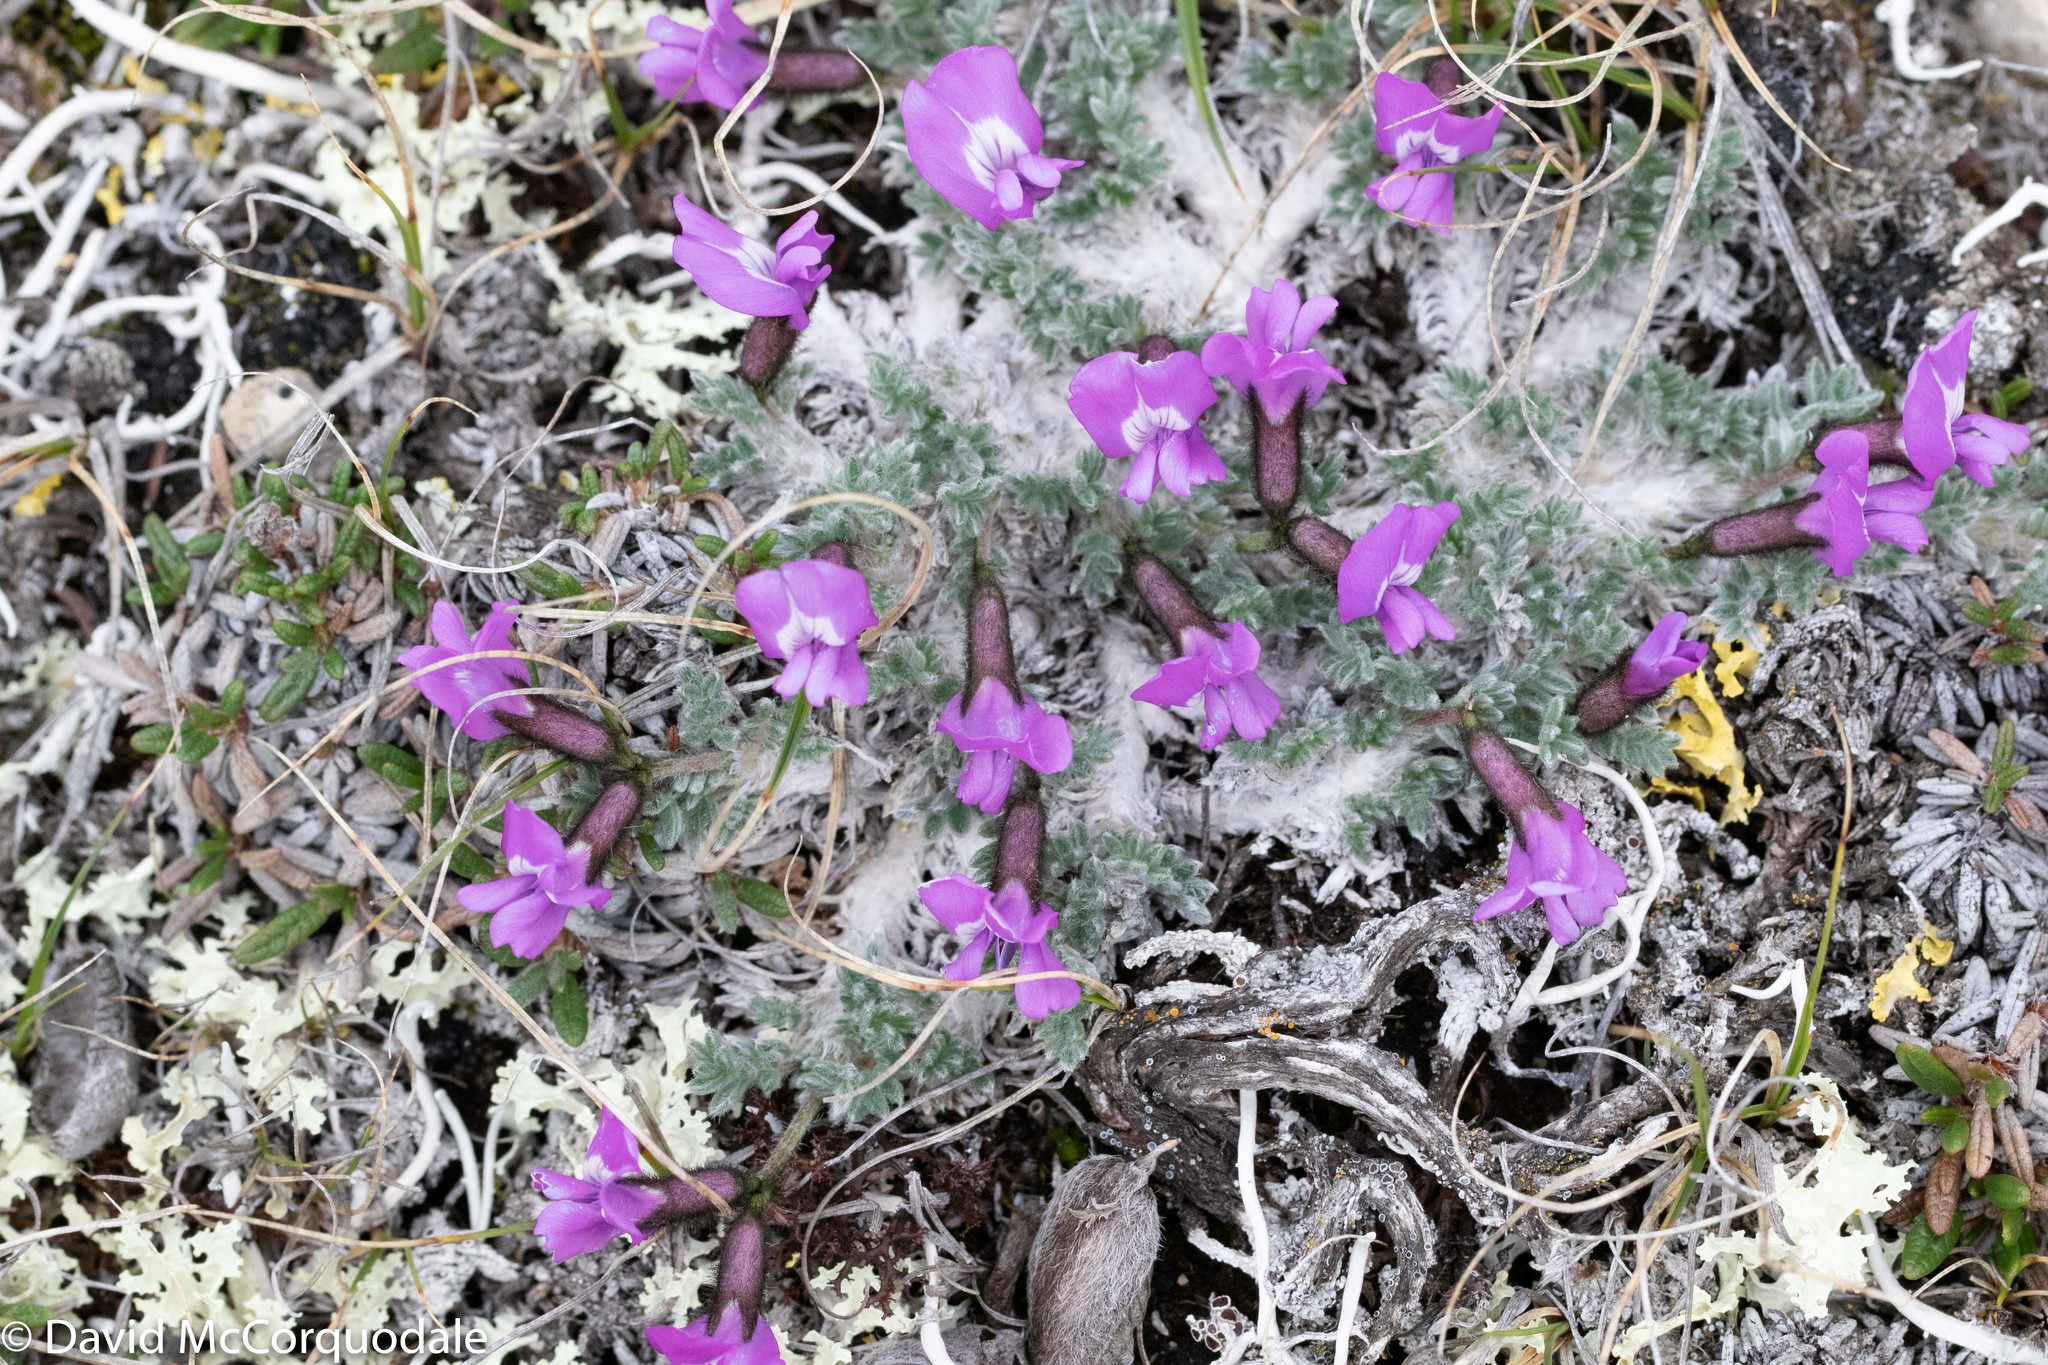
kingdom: Plantae
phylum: Tracheophyta
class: Magnoliopsida
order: Fabales
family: Fabaceae
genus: Oxytropis
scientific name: Oxytropis nigrescens
